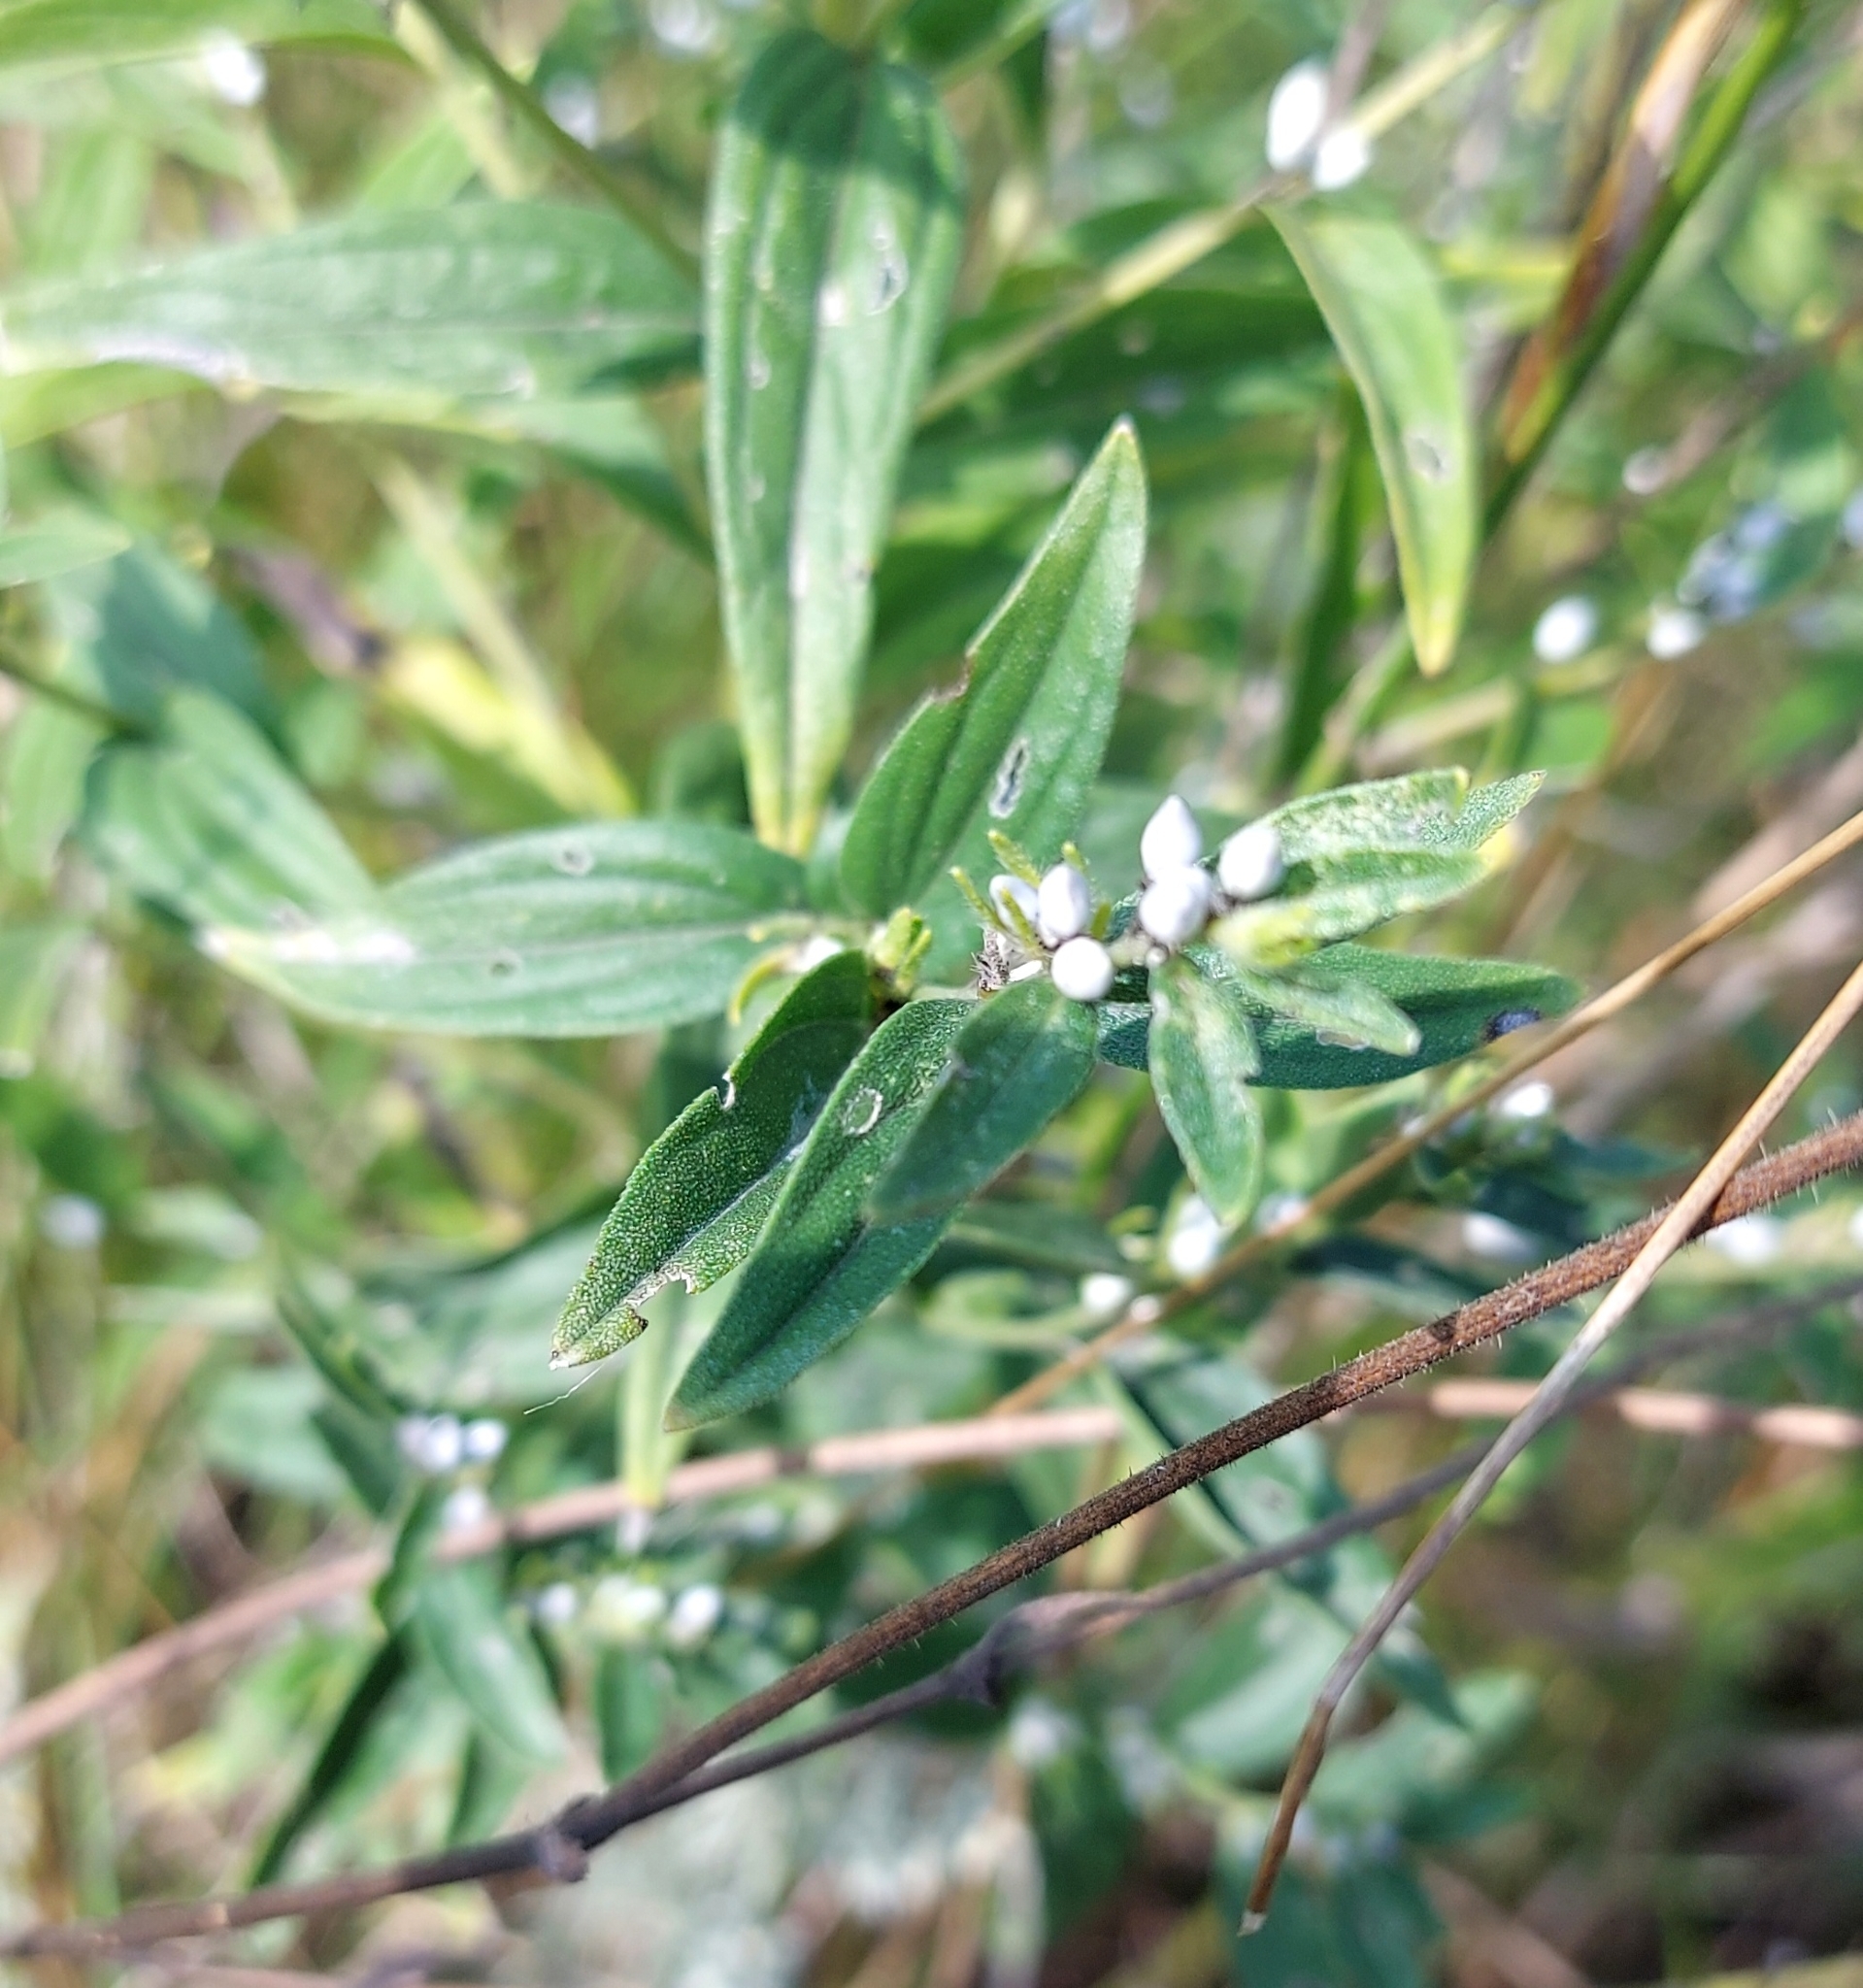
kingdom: Plantae
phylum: Tracheophyta
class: Magnoliopsida
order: Boraginales
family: Boraginaceae
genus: Lithospermum
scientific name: Lithospermum officinale
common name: Common gromwell
